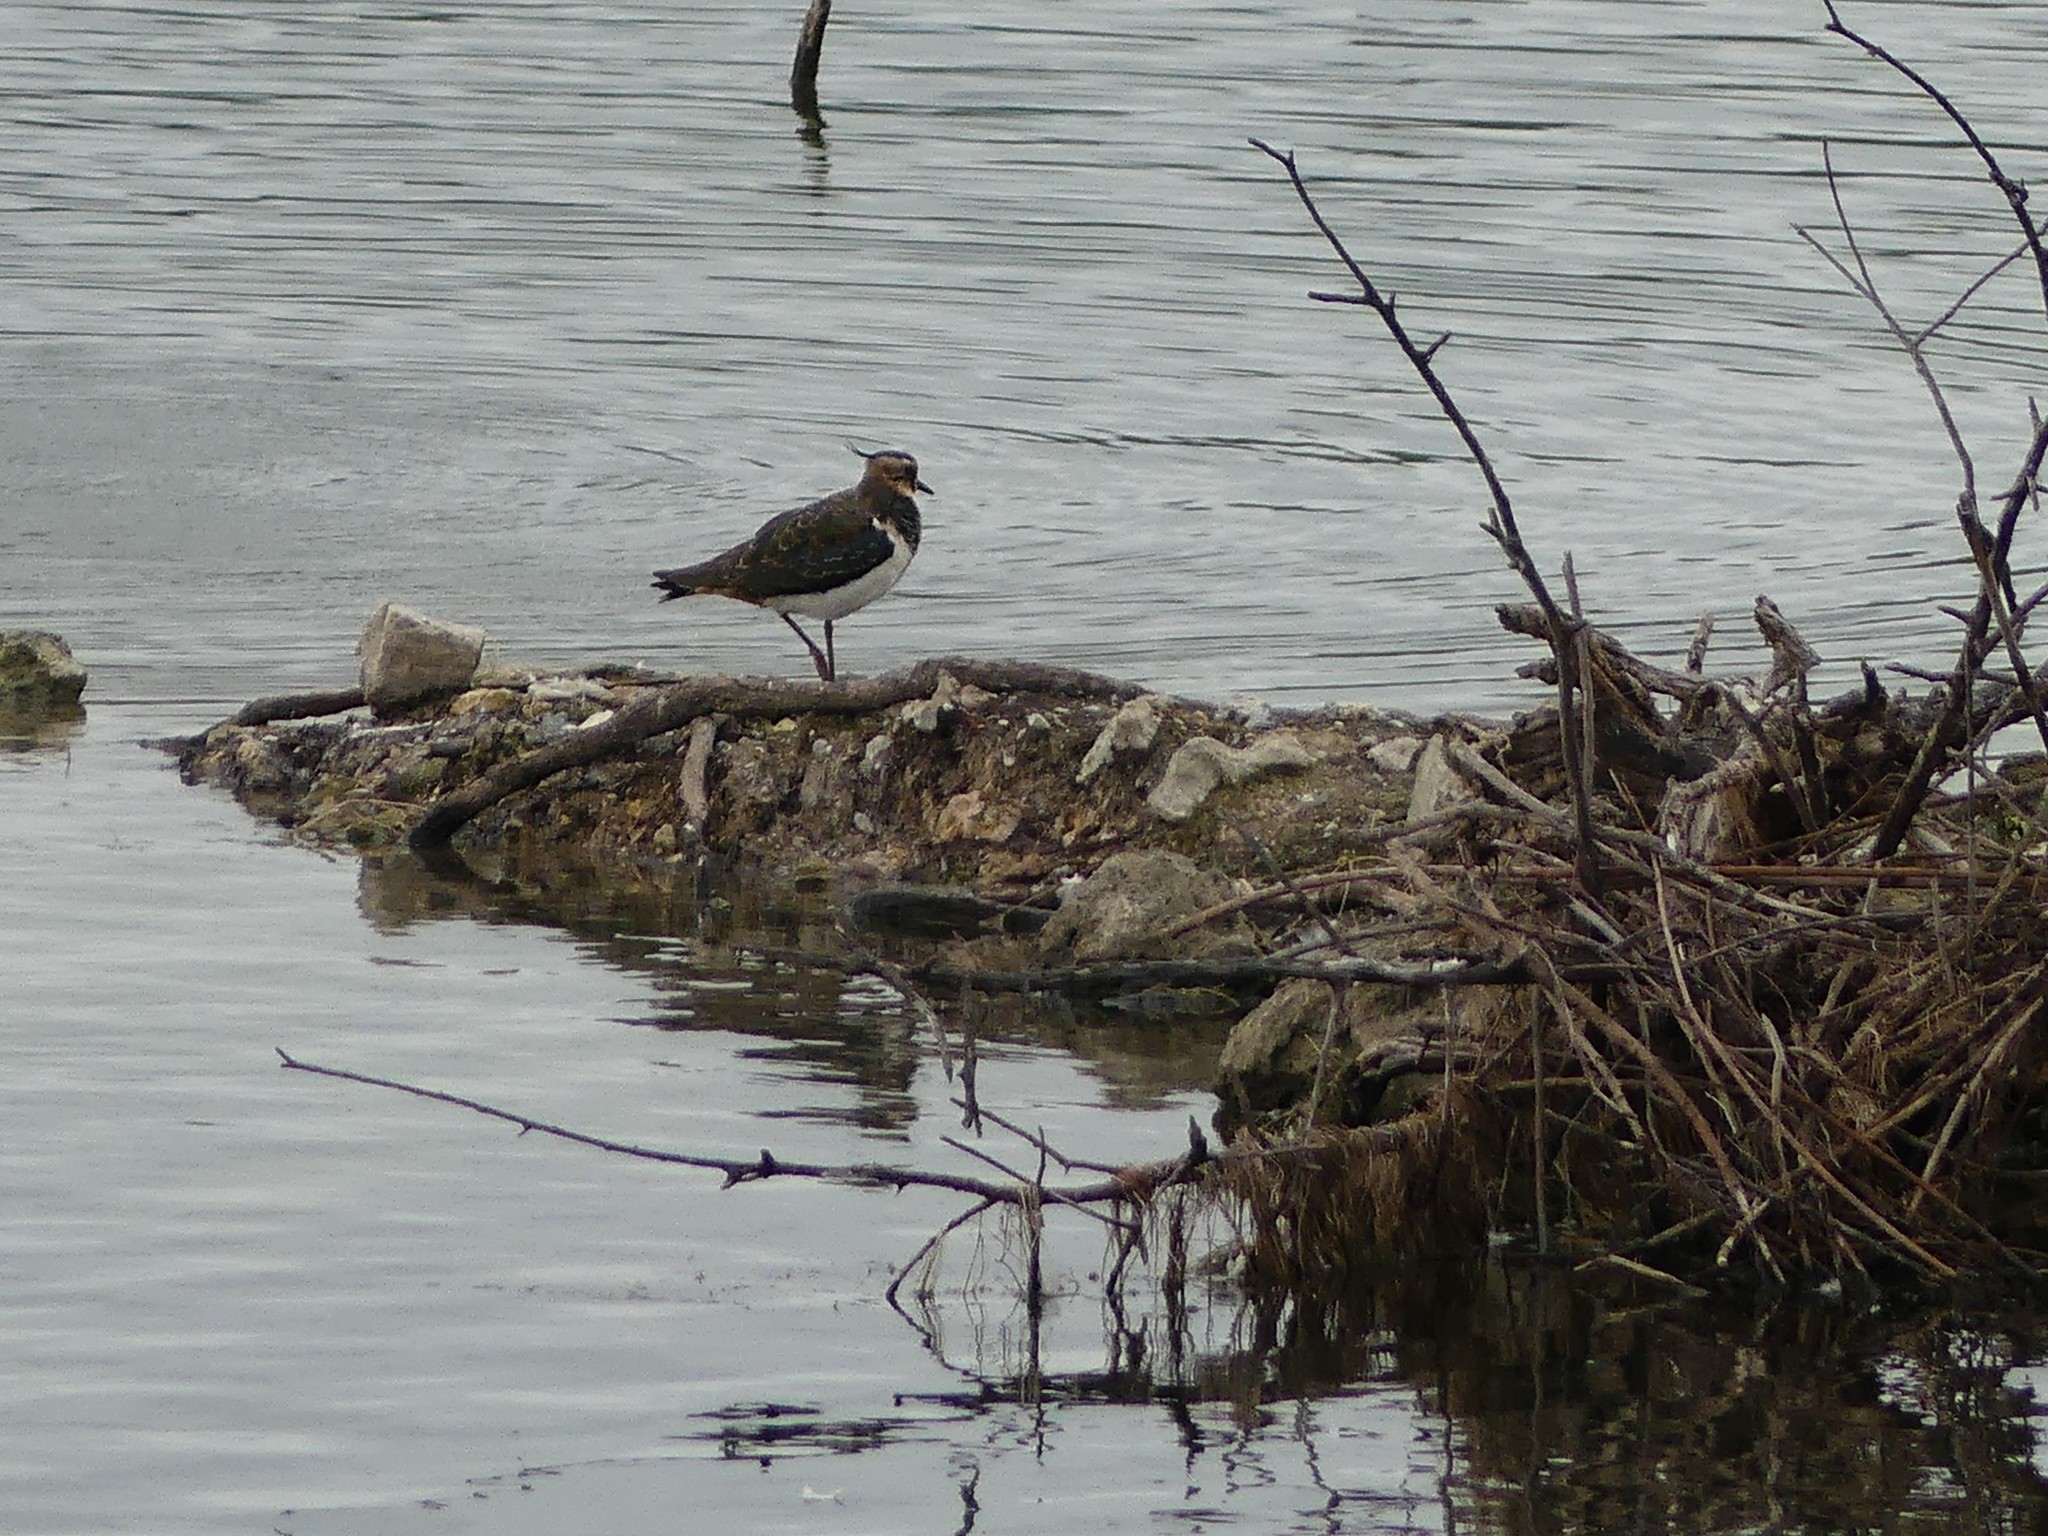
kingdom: Animalia
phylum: Chordata
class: Aves
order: Charadriiformes
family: Charadriidae
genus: Vanellus
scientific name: Vanellus vanellus
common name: Northern lapwing
